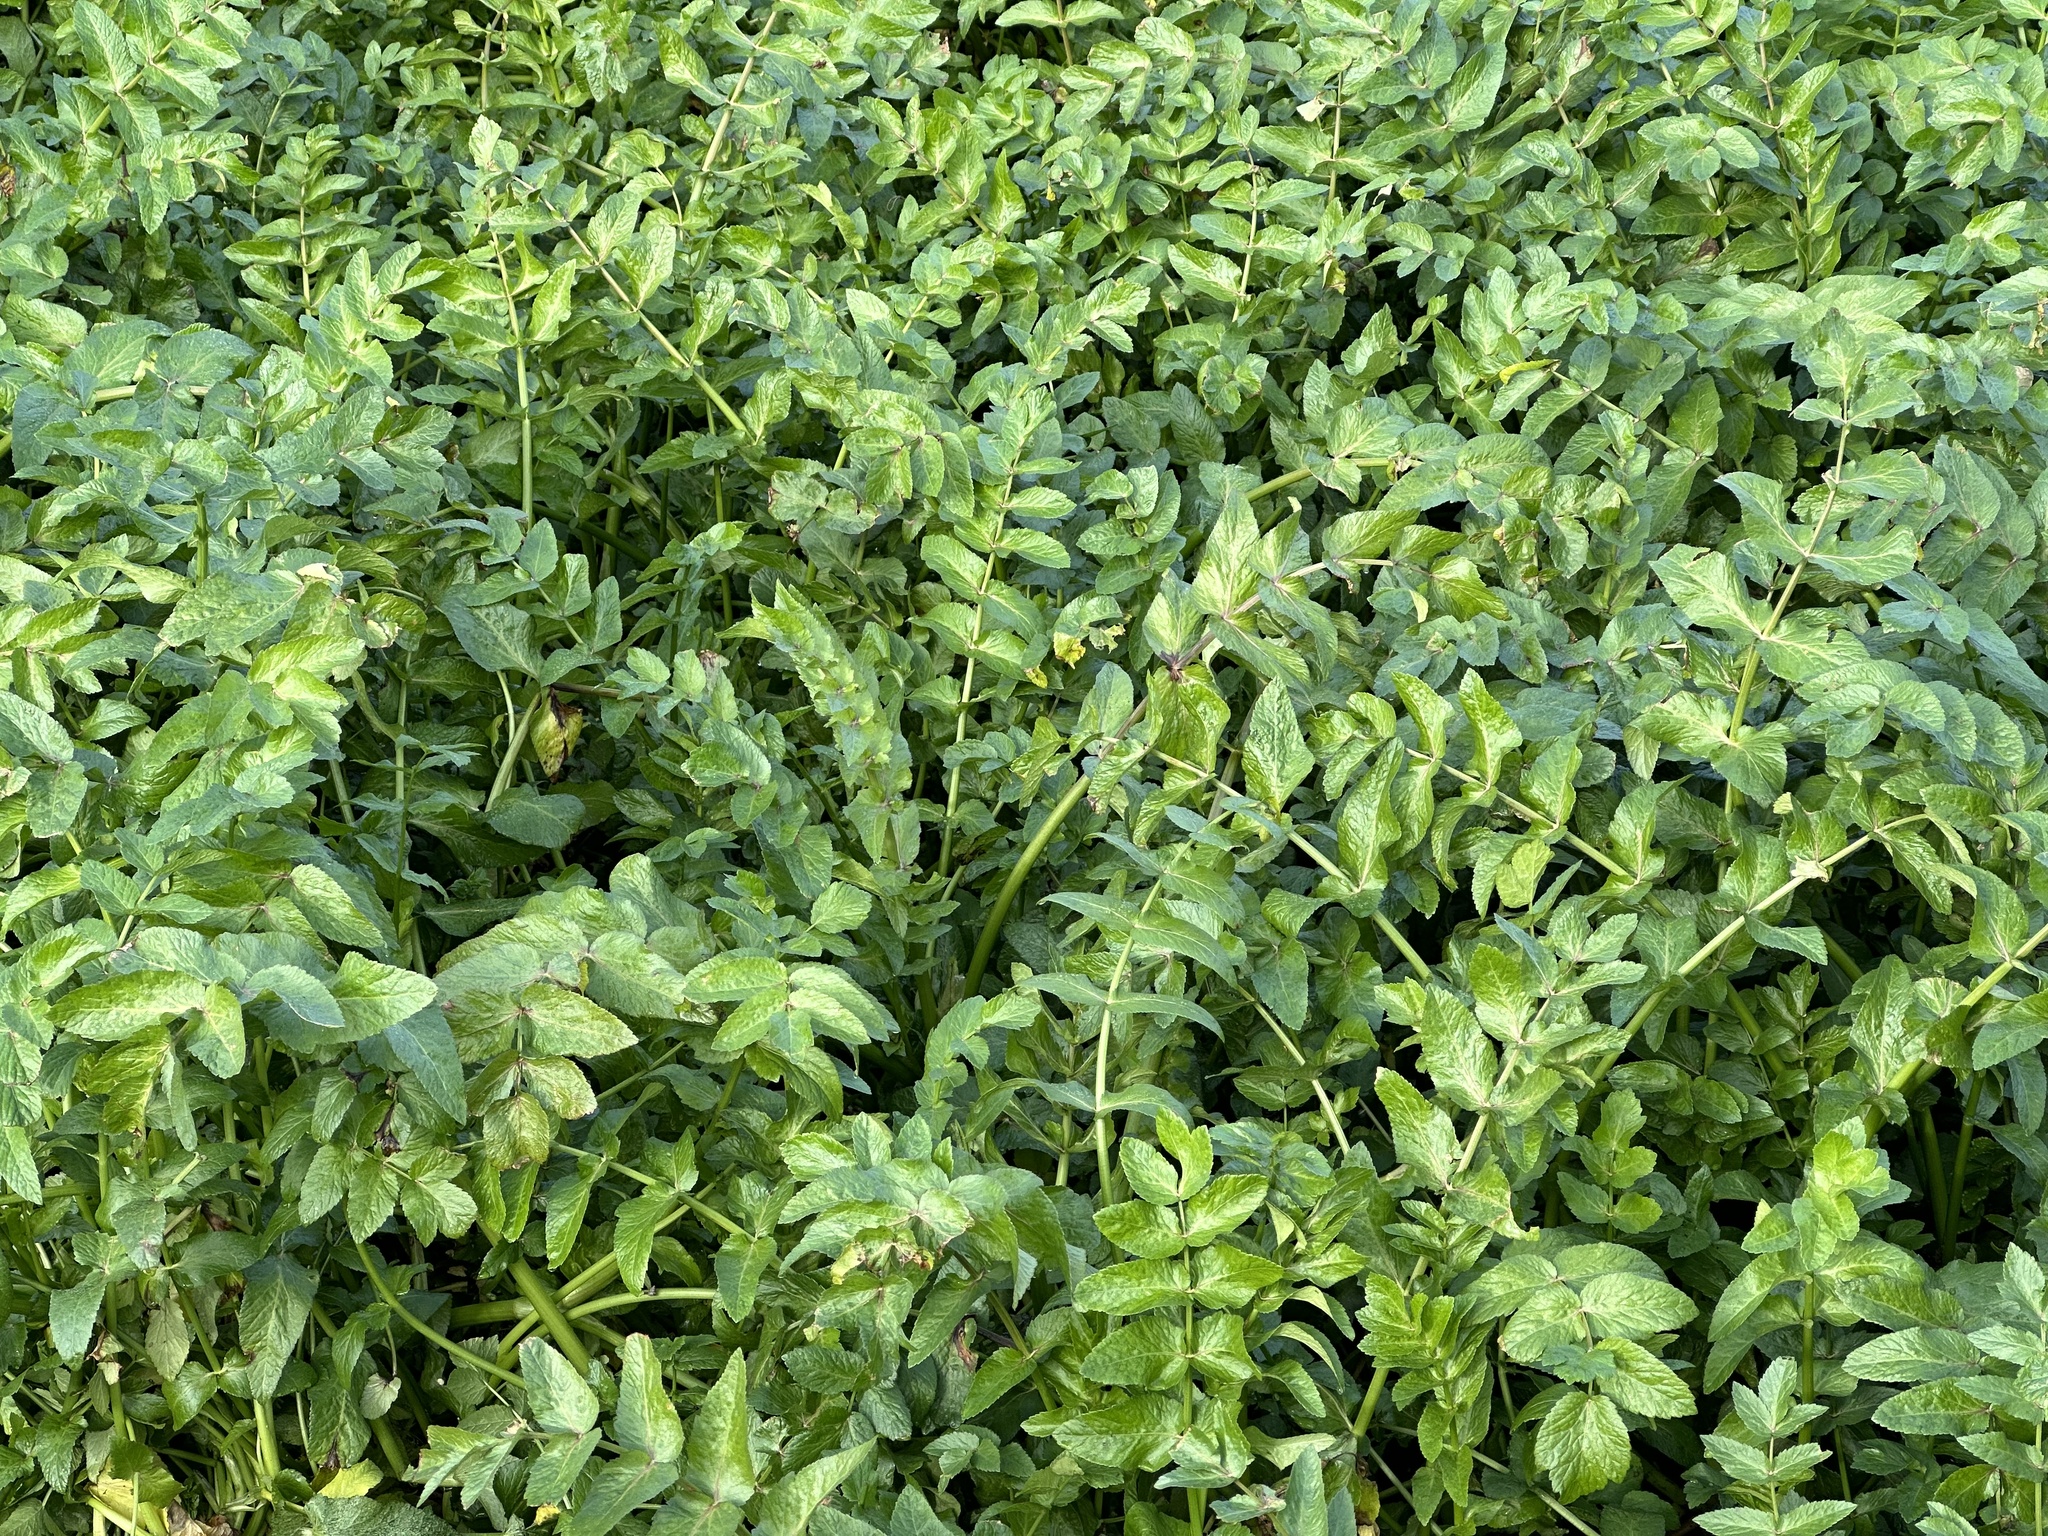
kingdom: Plantae
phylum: Tracheophyta
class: Magnoliopsida
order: Apiales
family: Apiaceae
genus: Helosciadium
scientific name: Helosciadium nodiflorum
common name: Fool's-watercress
